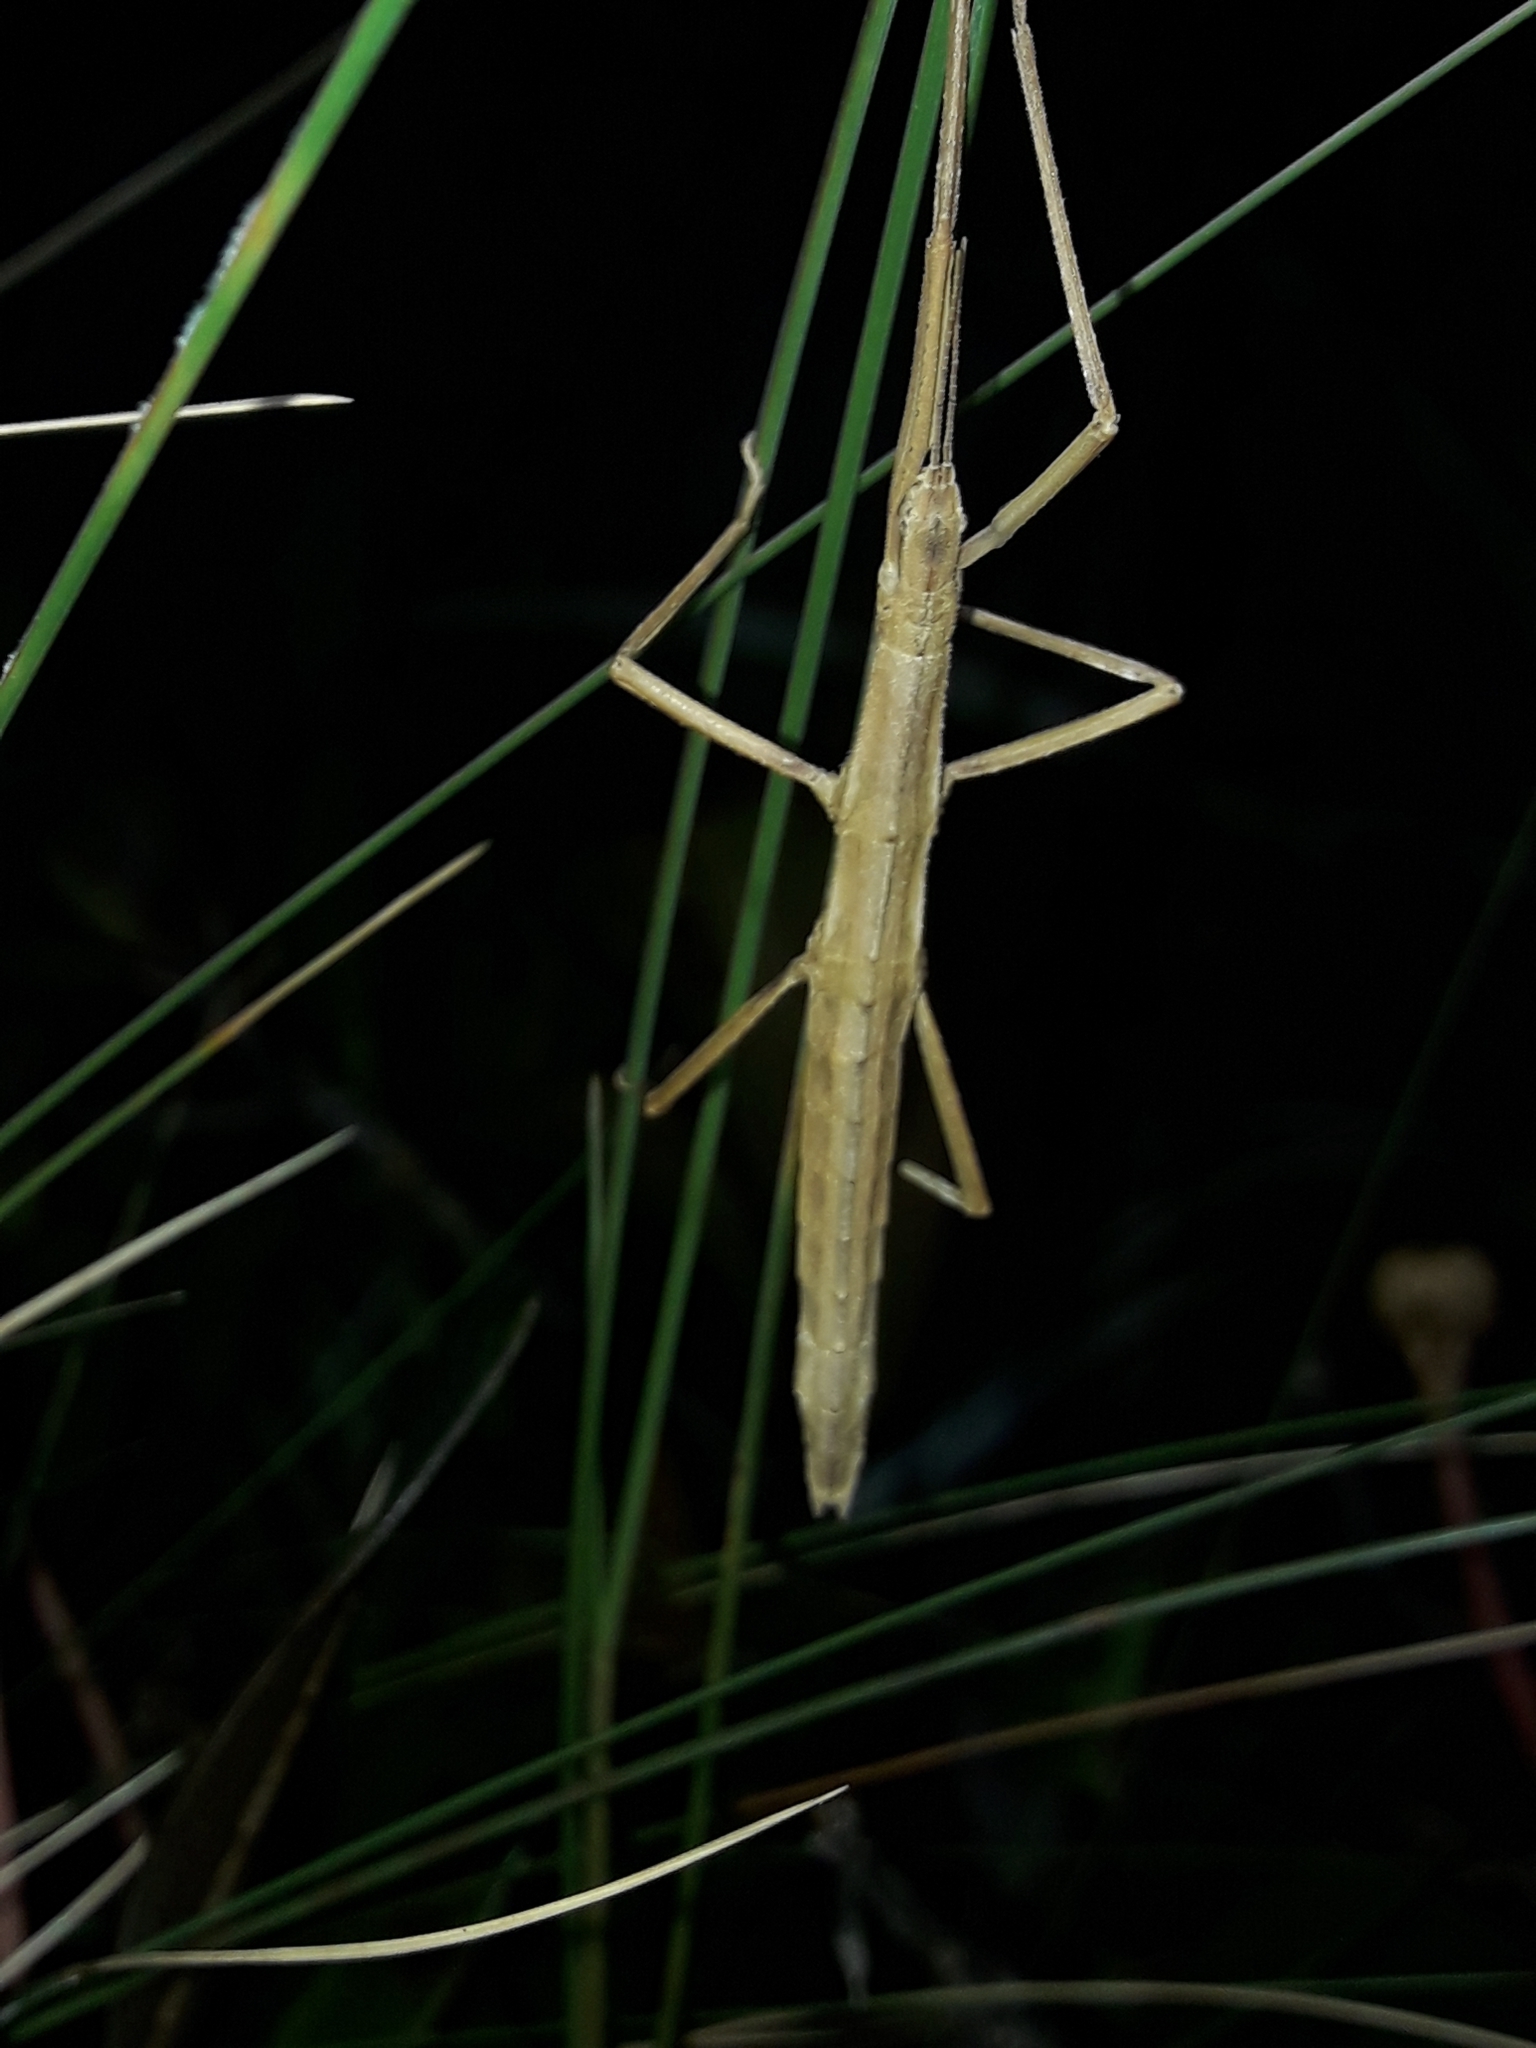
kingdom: Animalia
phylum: Arthropoda
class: Insecta
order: Phasmida
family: Phasmatidae
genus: Tectarchus
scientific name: Tectarchus huttoni
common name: The common ridge-backed stick insect
